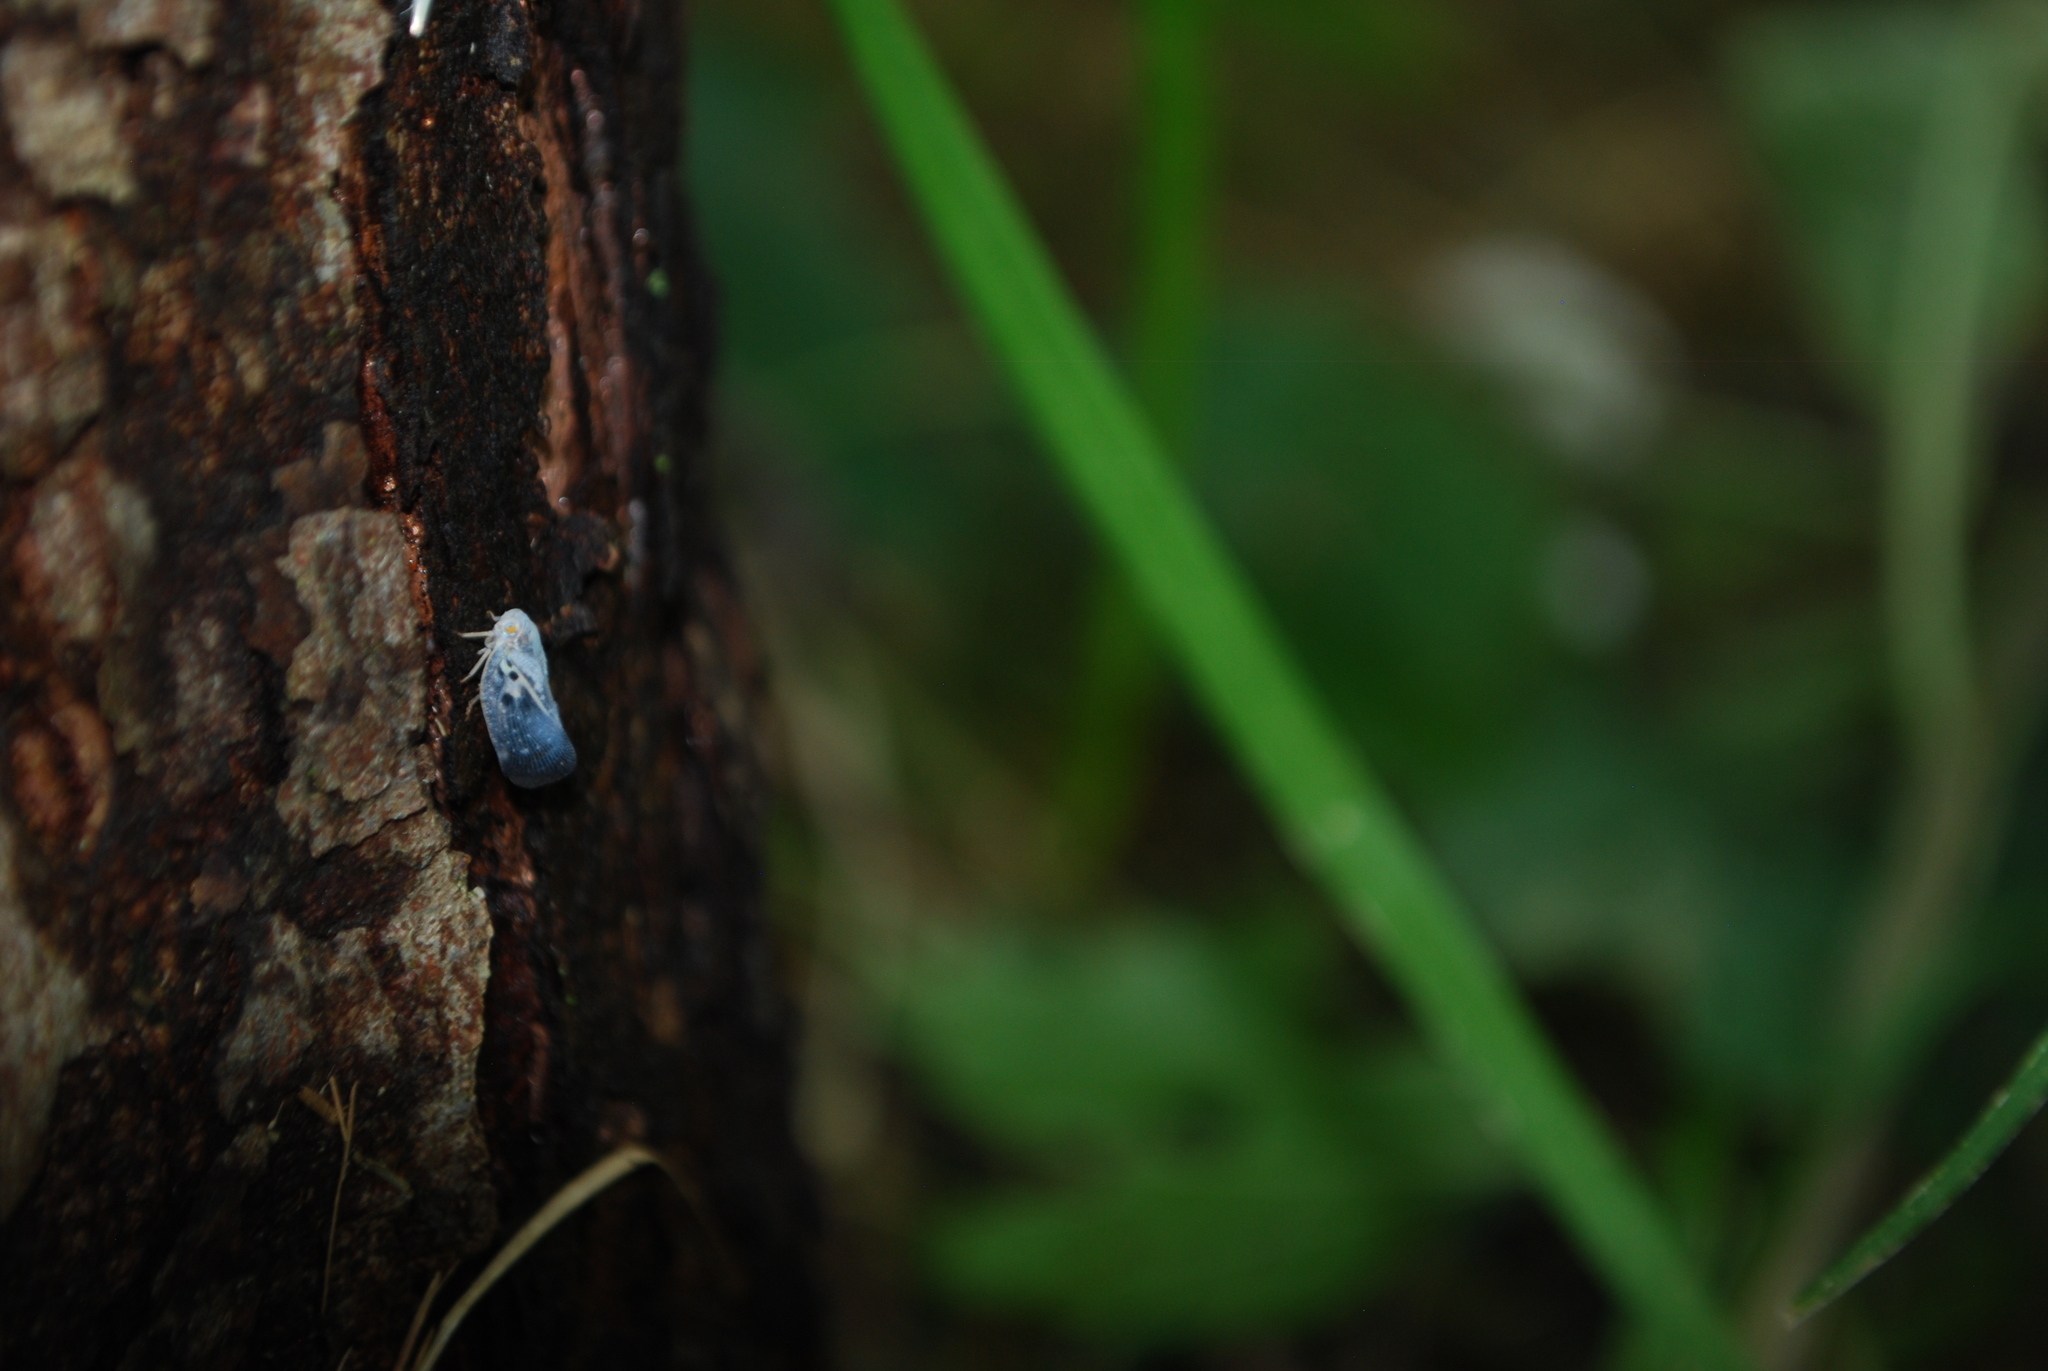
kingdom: Animalia
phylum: Arthropoda
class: Insecta
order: Hemiptera
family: Flatidae
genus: Metcalfa
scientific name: Metcalfa pruinosa
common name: Citrus flatid planthopper
